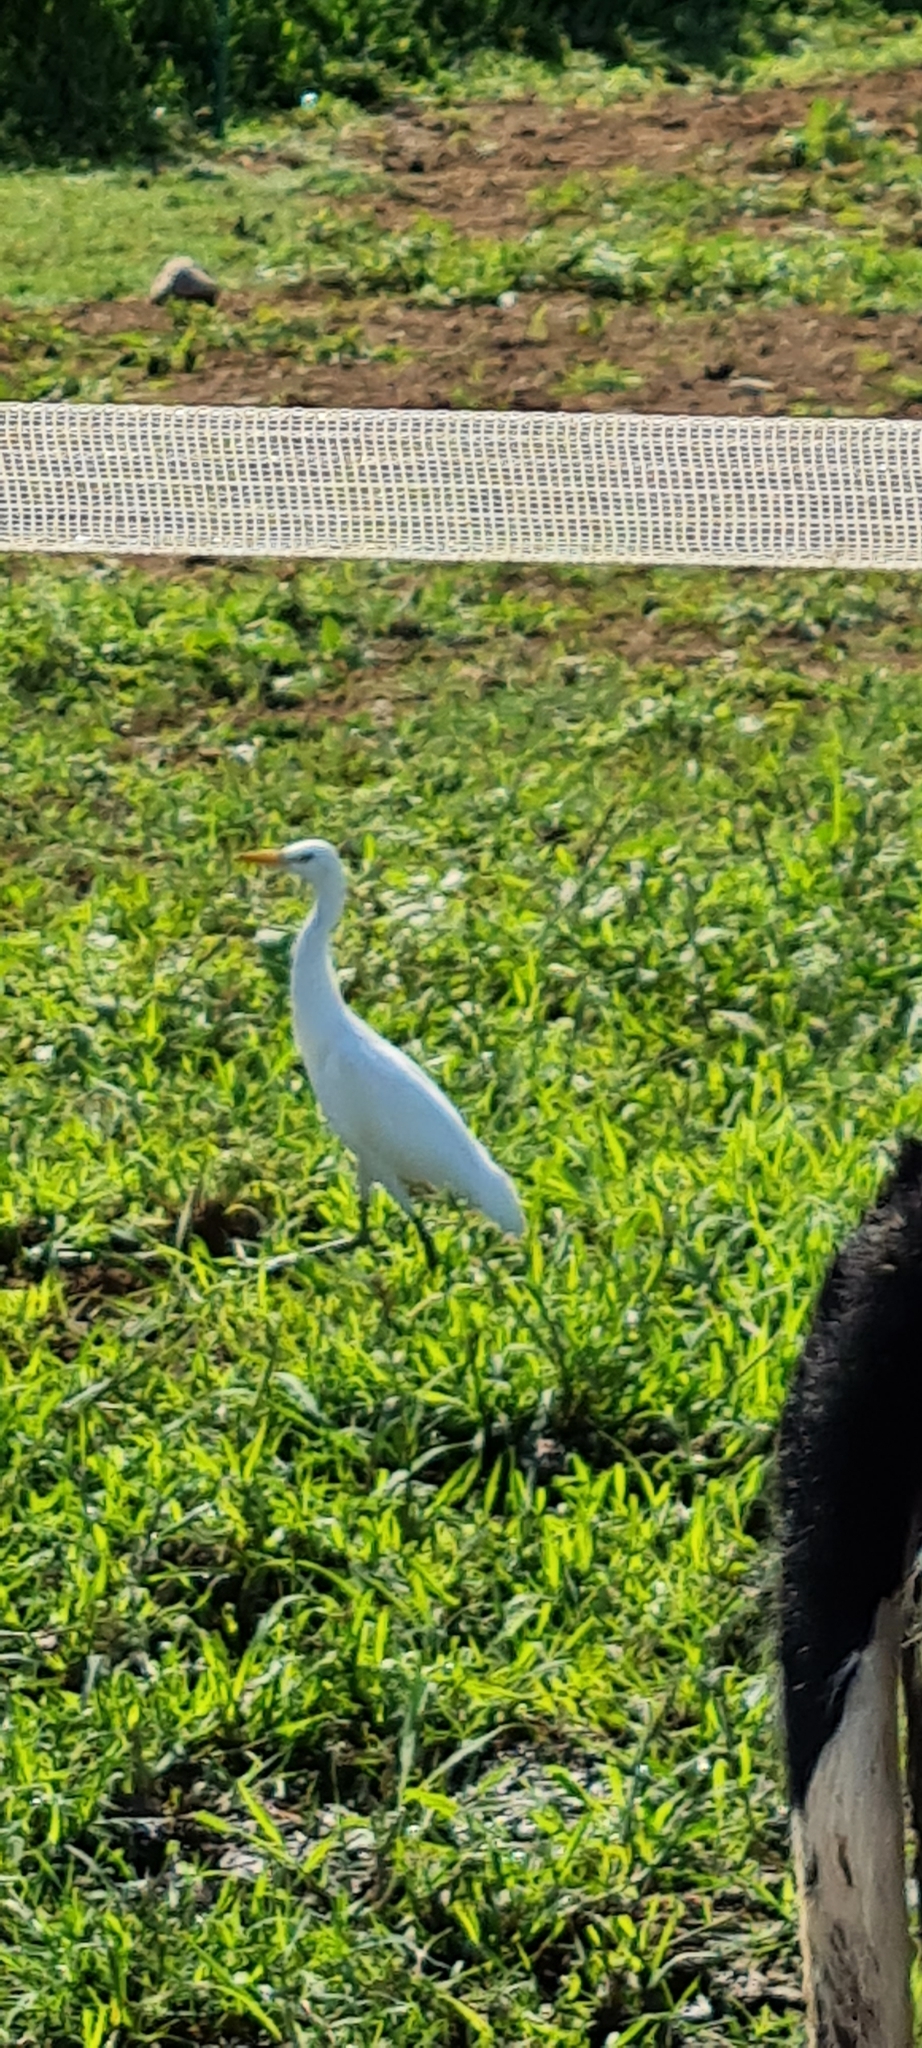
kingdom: Animalia
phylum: Chordata
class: Aves
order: Pelecaniformes
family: Ardeidae
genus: Bubulcus
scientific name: Bubulcus ibis
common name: Cattle egret
